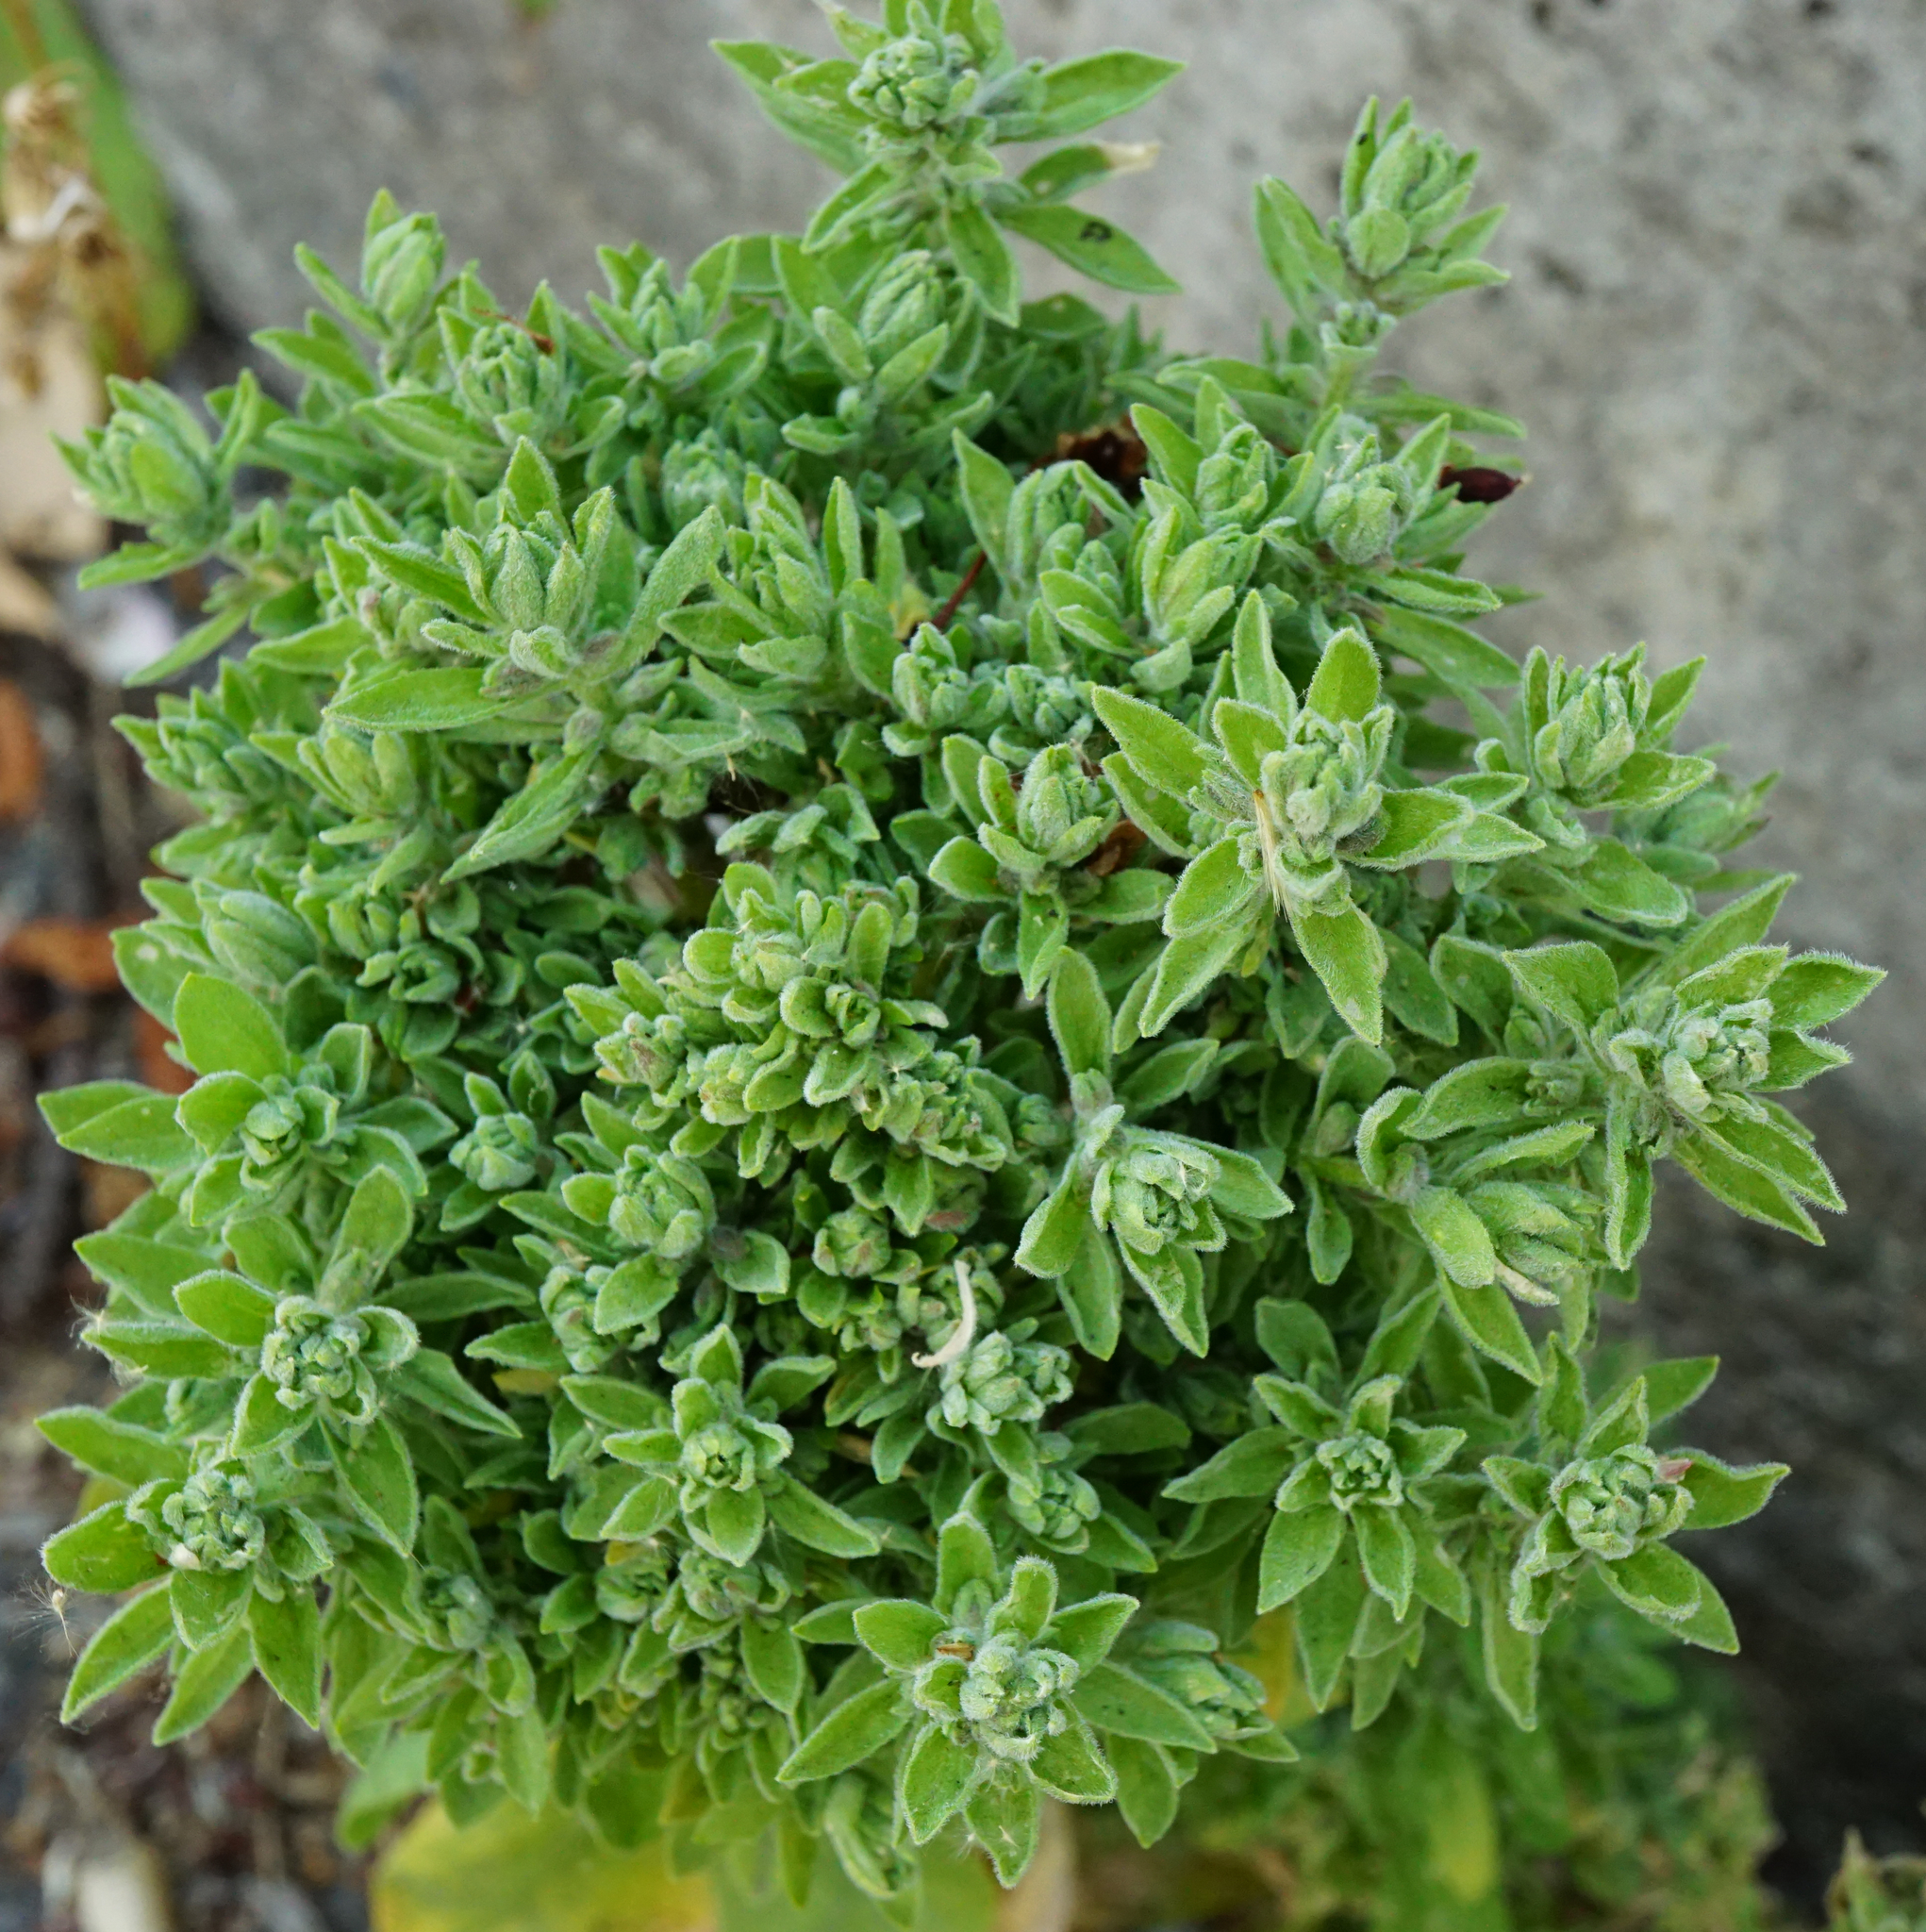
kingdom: Plantae
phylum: Tracheophyta
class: Magnoliopsida
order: Brassicales
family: Brassicaceae
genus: Lepidium
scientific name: Lepidium draba
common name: Hoary cress
